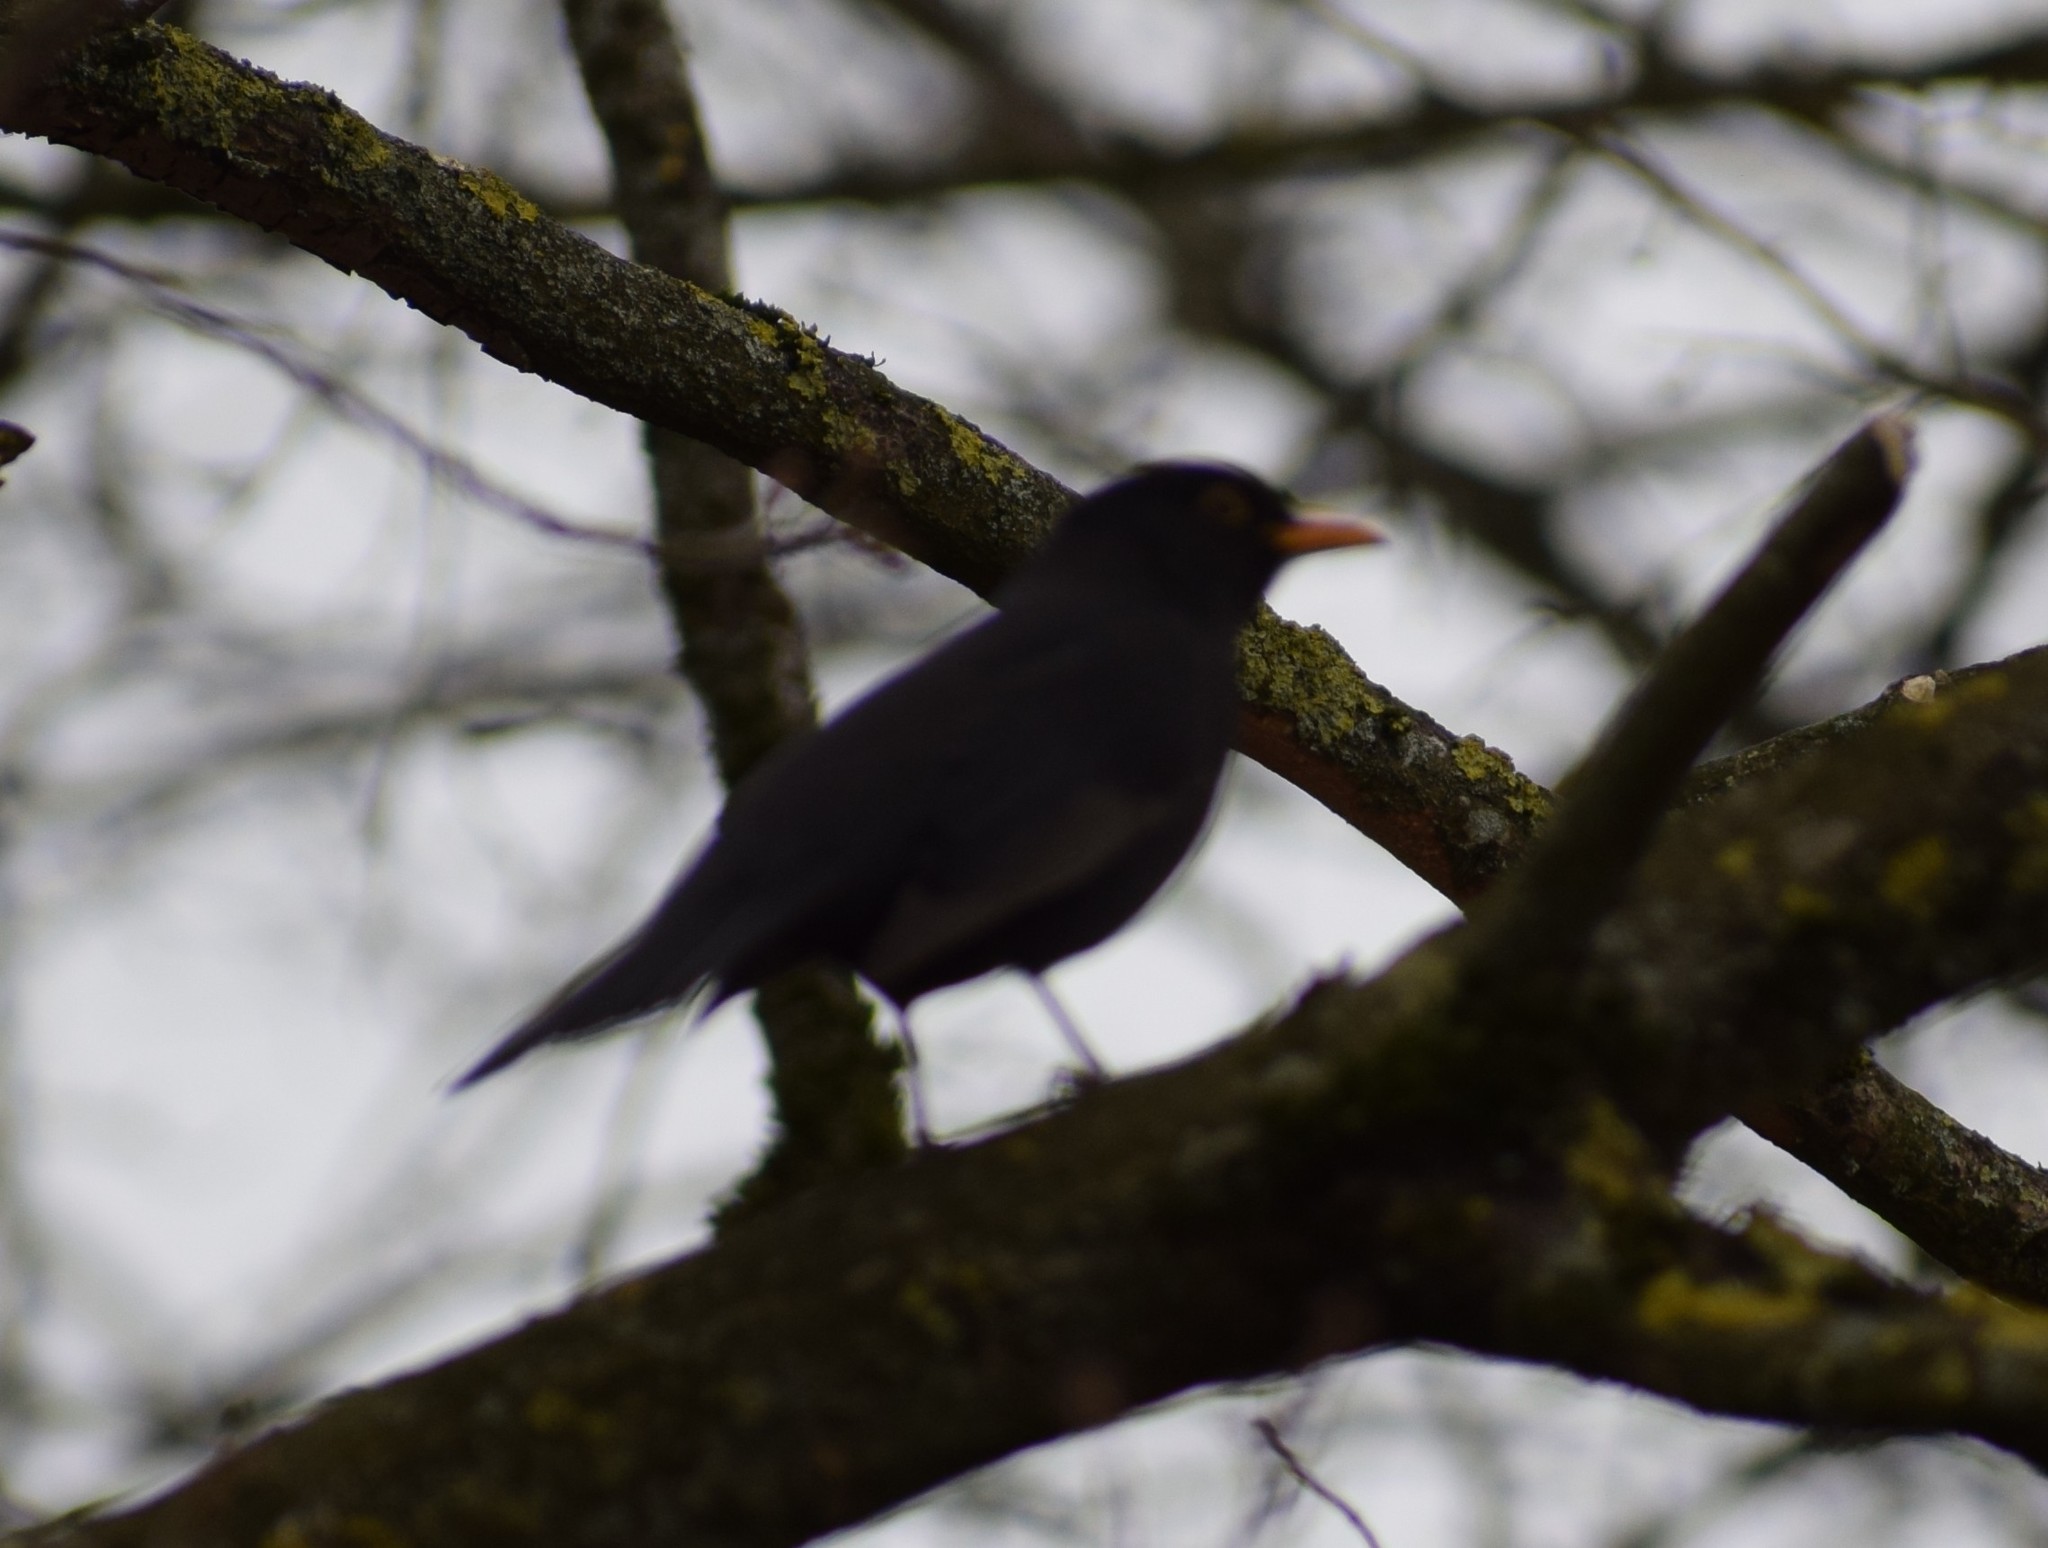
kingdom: Animalia
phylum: Chordata
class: Aves
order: Passeriformes
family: Turdidae
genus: Turdus
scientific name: Turdus merula
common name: Common blackbird
